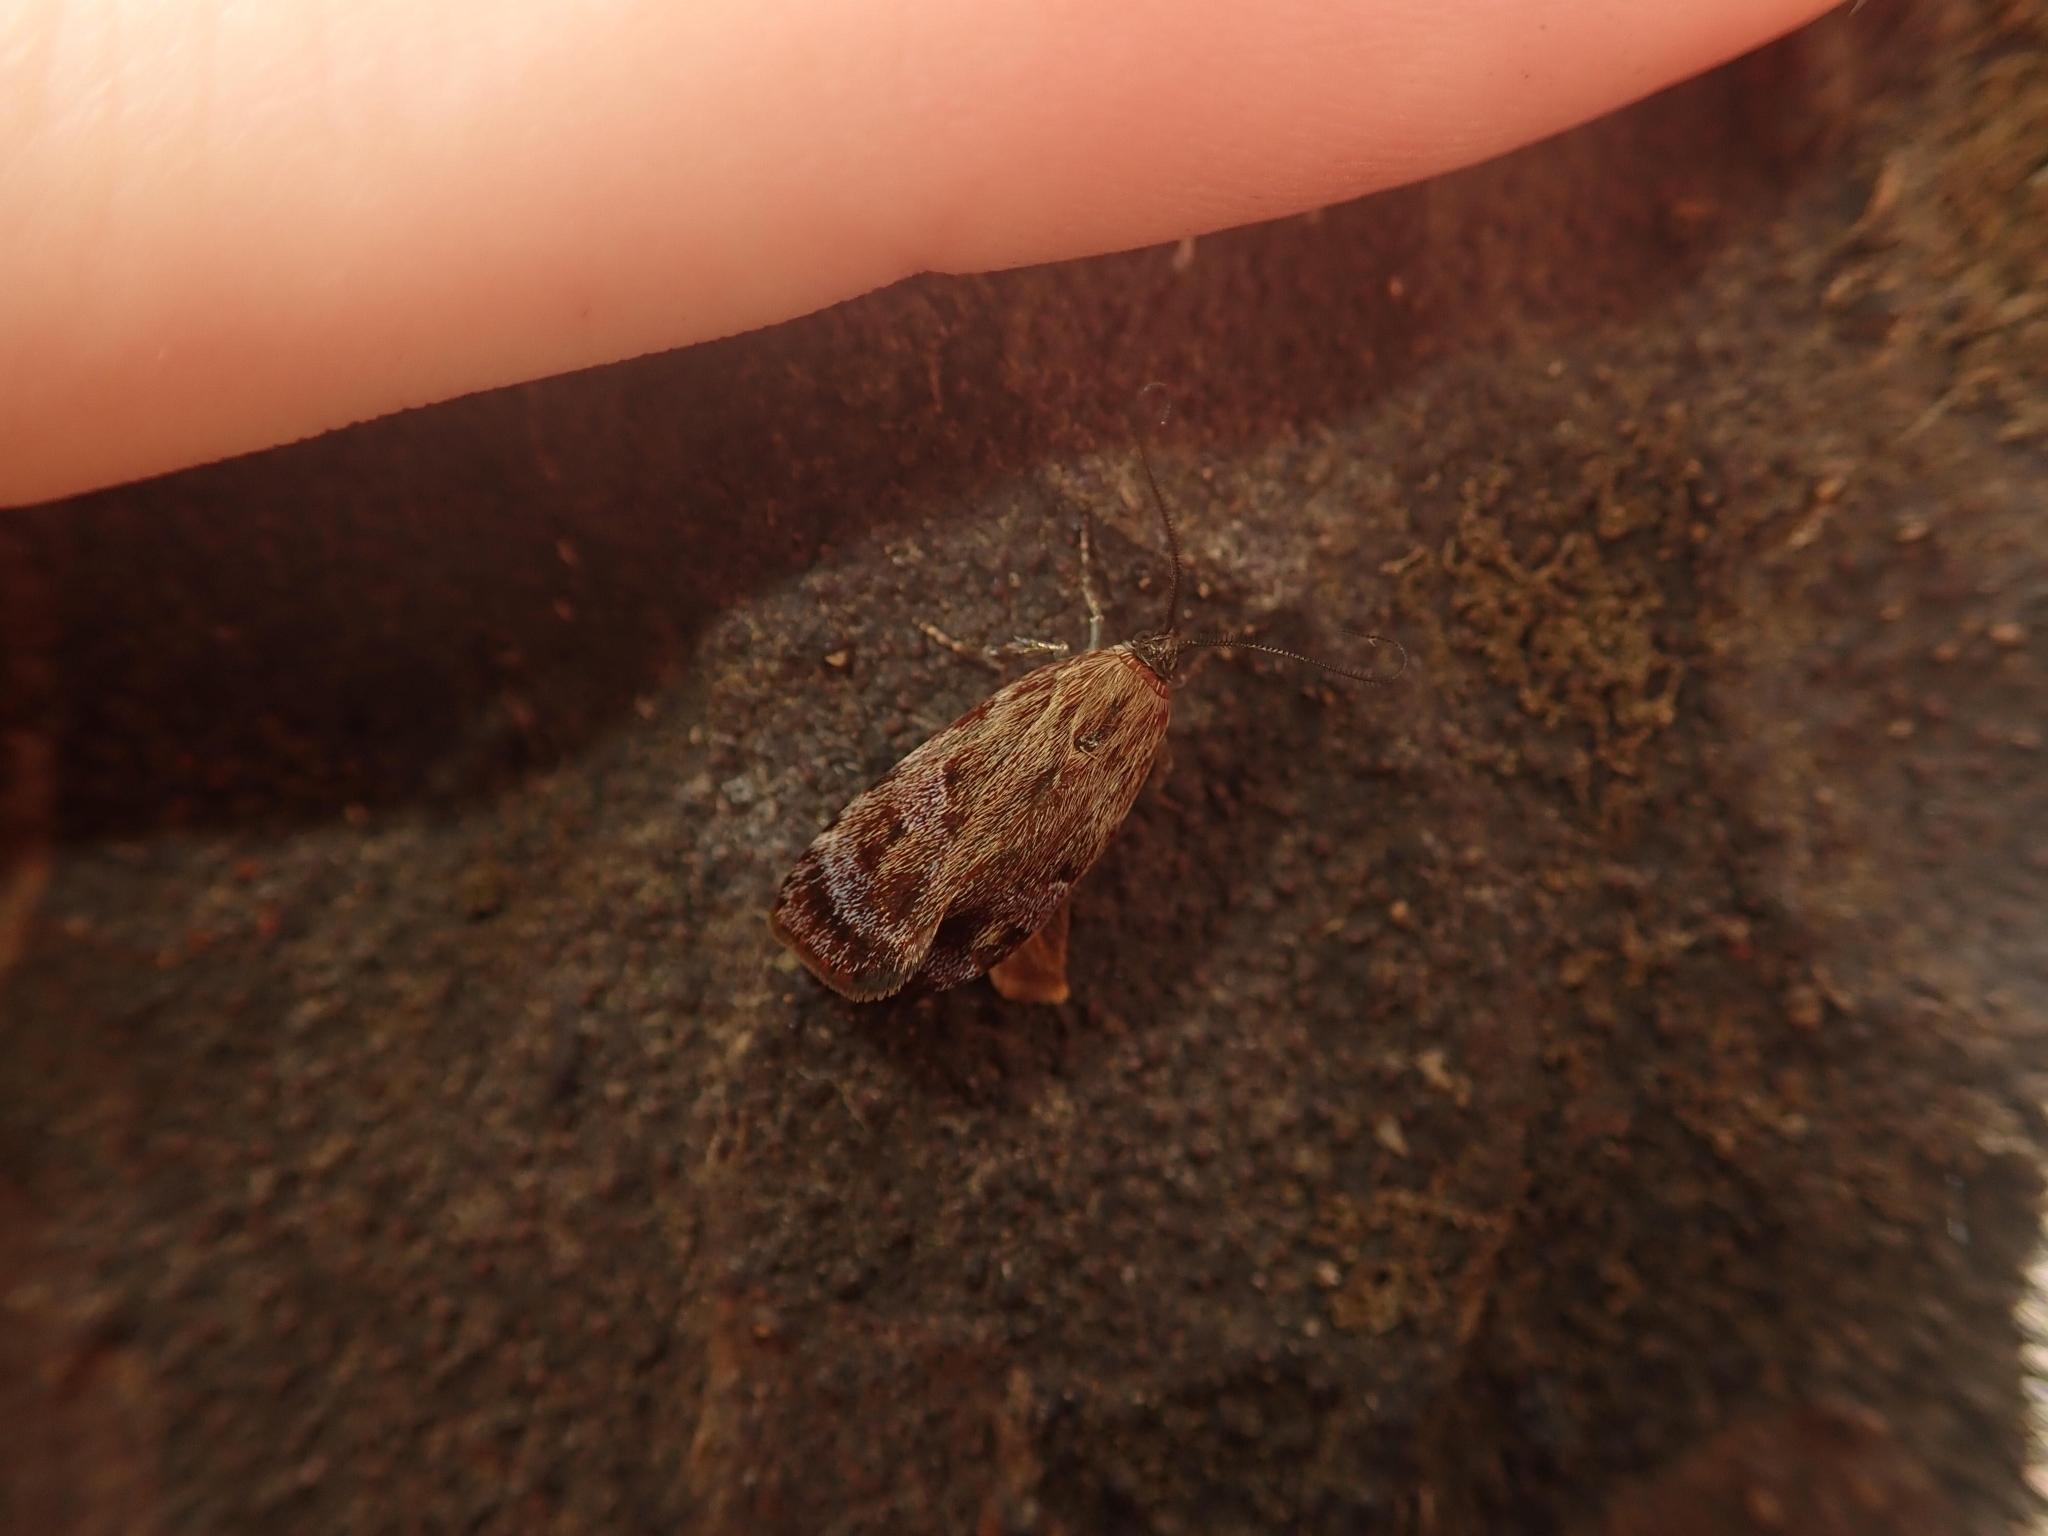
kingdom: Animalia
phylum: Arthropoda
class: Insecta
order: Lepidoptera
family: Oecophoridae
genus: Hierodoris
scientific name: Hierodoris
